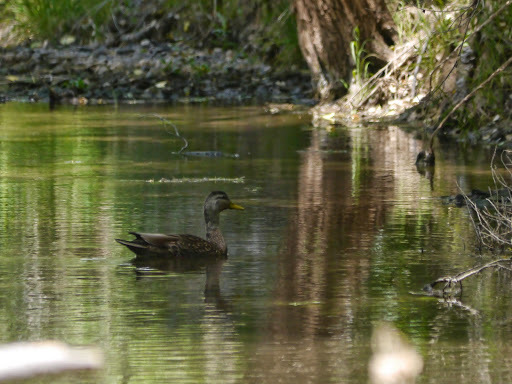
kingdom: Animalia
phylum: Chordata
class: Aves
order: Anseriformes
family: Anatidae
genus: Anas
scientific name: Anas diazi
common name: Mexican duck
